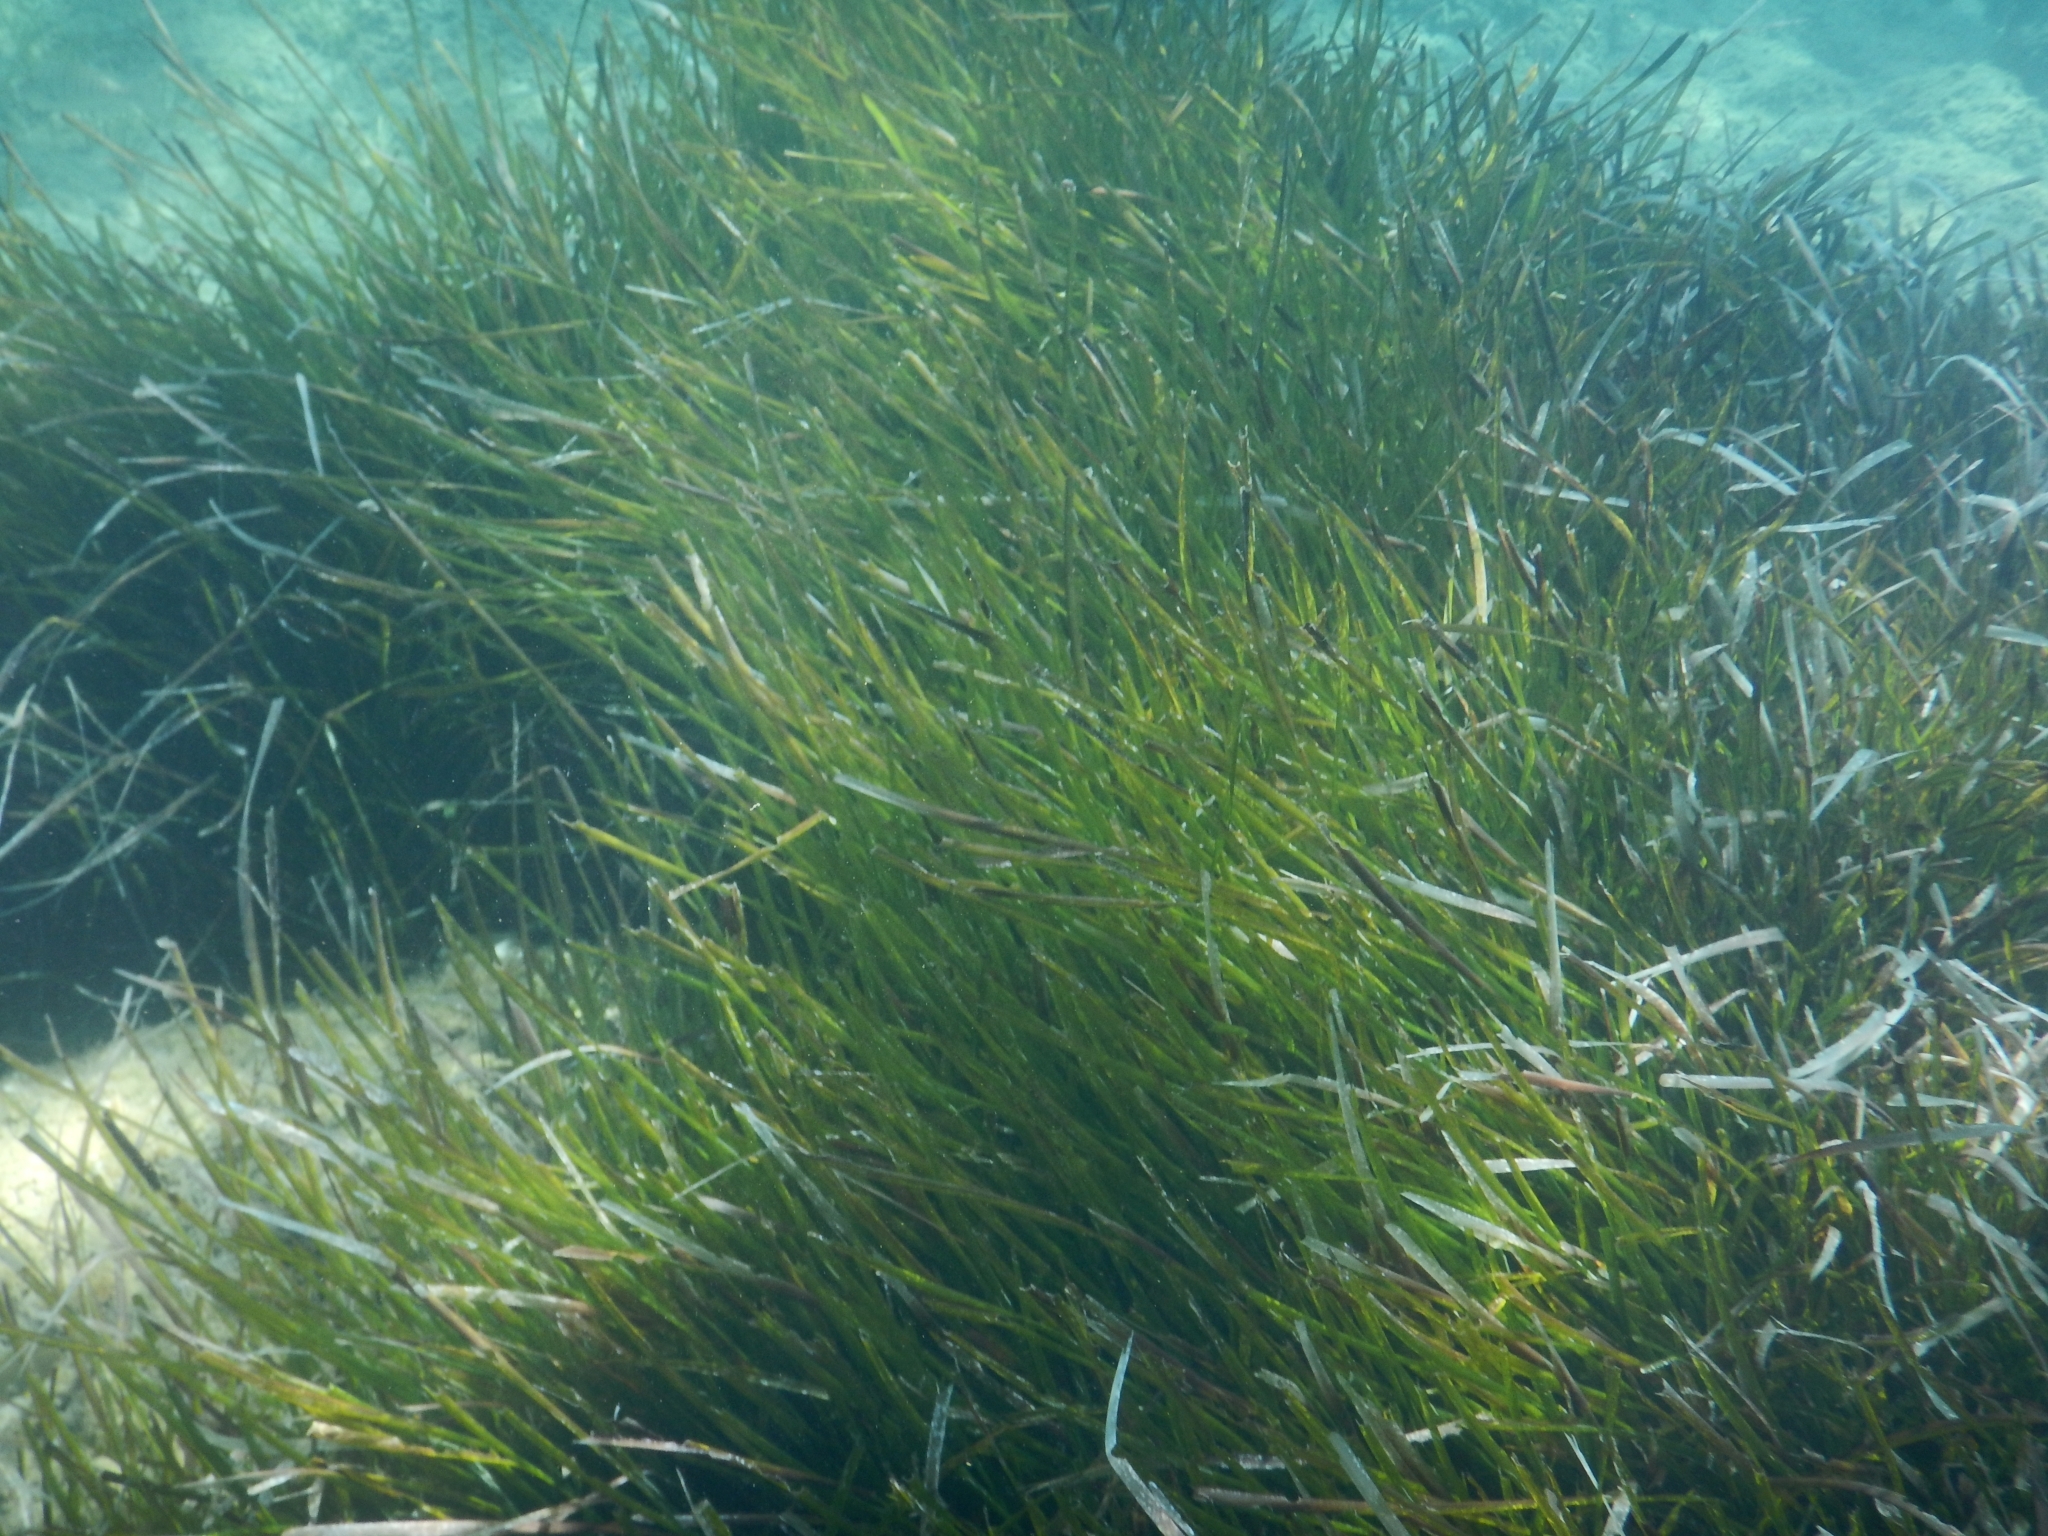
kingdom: Plantae
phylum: Tracheophyta
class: Liliopsida
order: Alismatales
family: Posidoniaceae
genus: Posidonia
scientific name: Posidonia oceanica
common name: Mediterranean tapeweed
